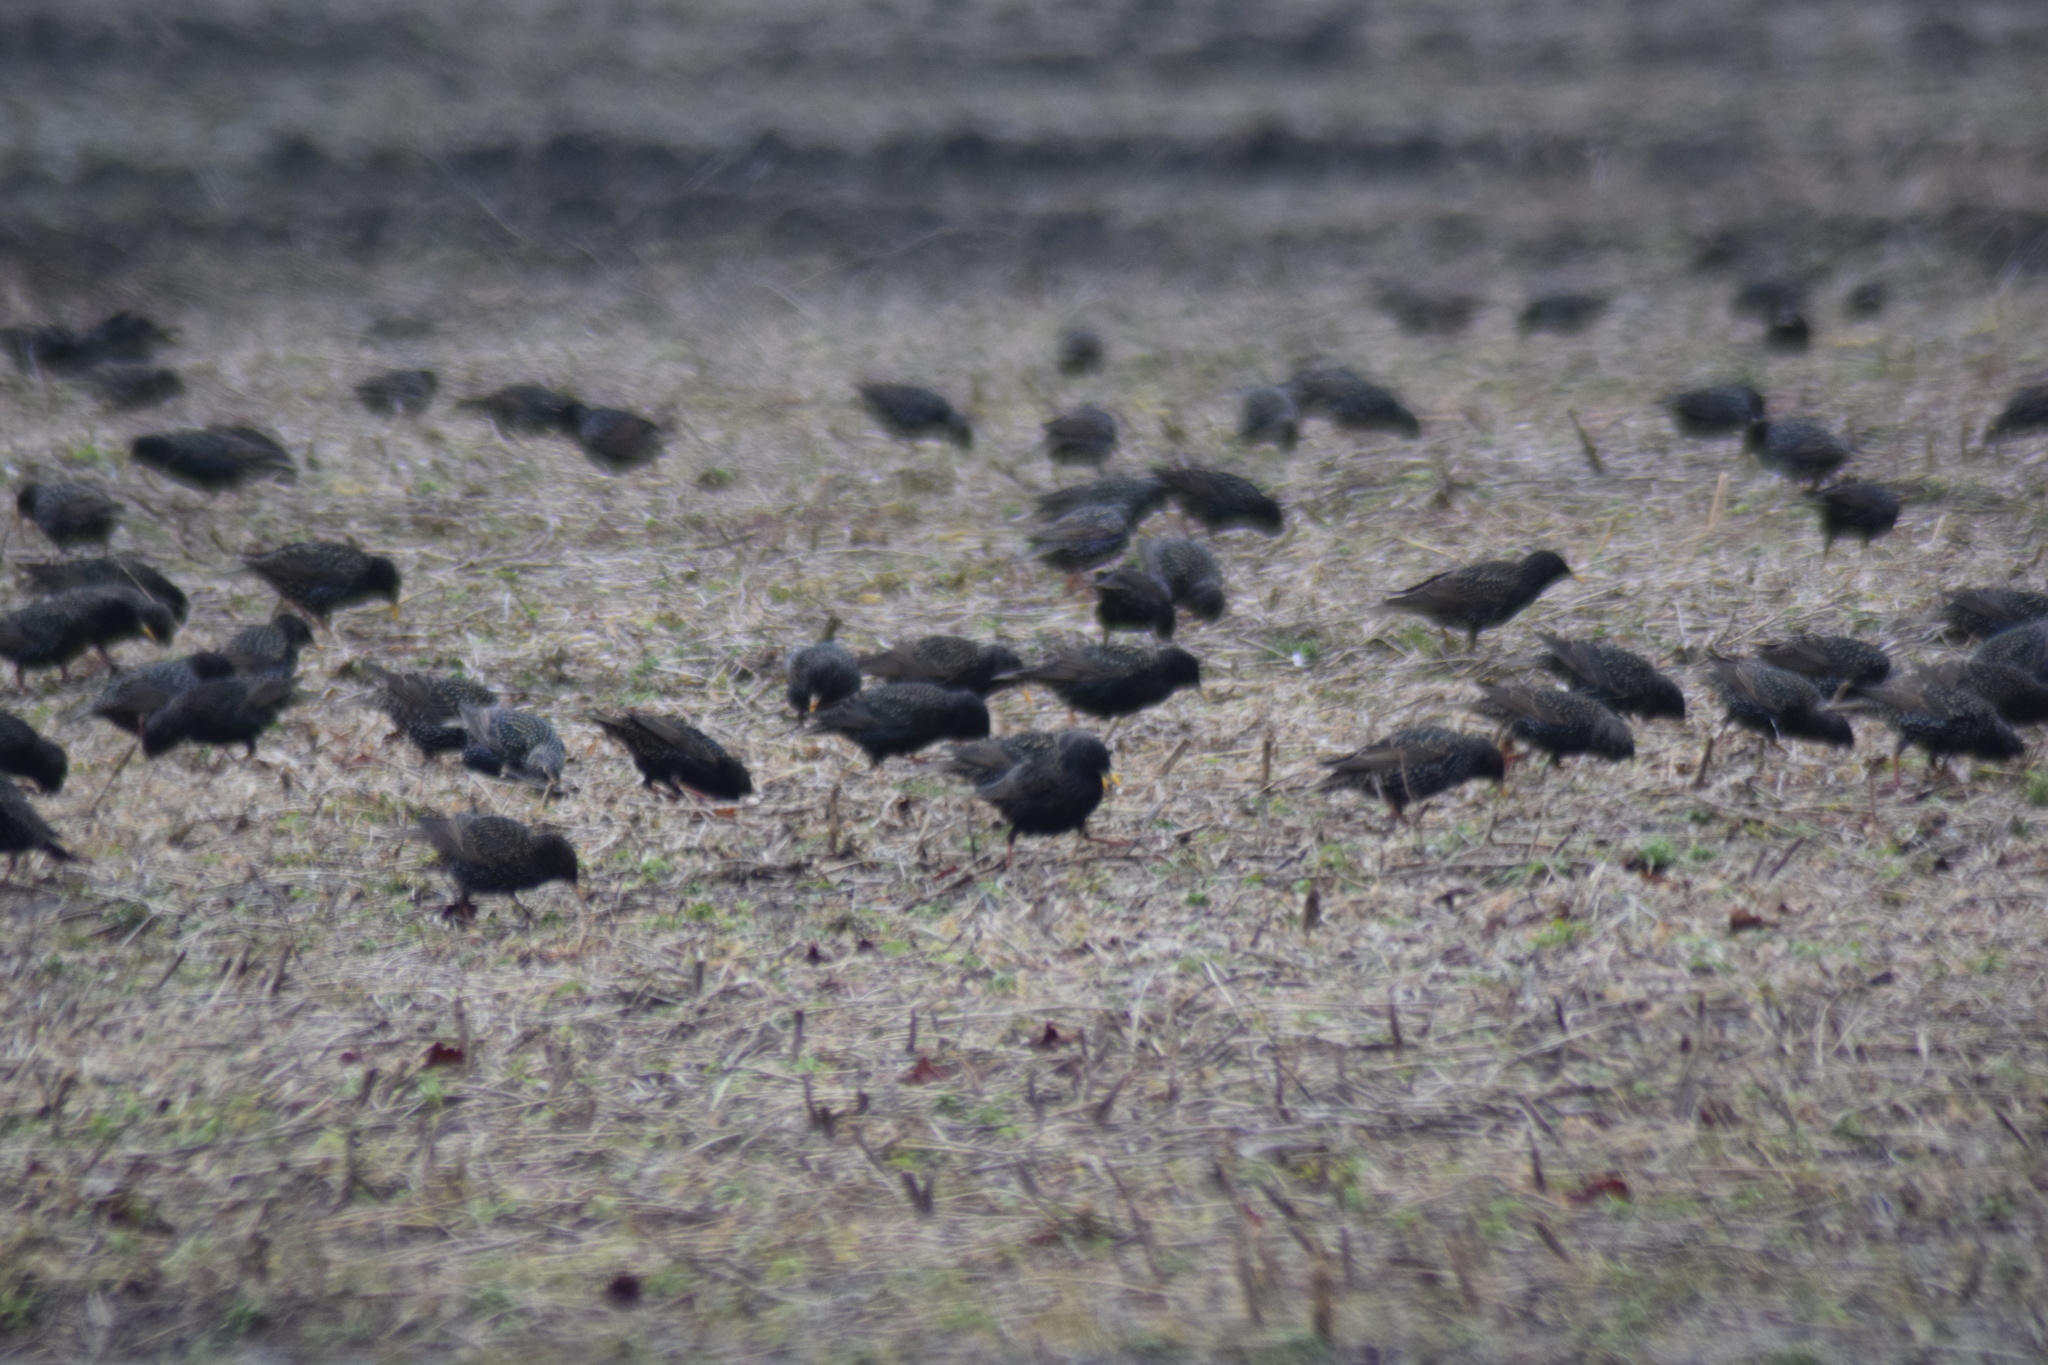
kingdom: Animalia
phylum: Chordata
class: Aves
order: Passeriformes
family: Sturnidae
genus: Sturnus
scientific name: Sturnus vulgaris
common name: Common starling
